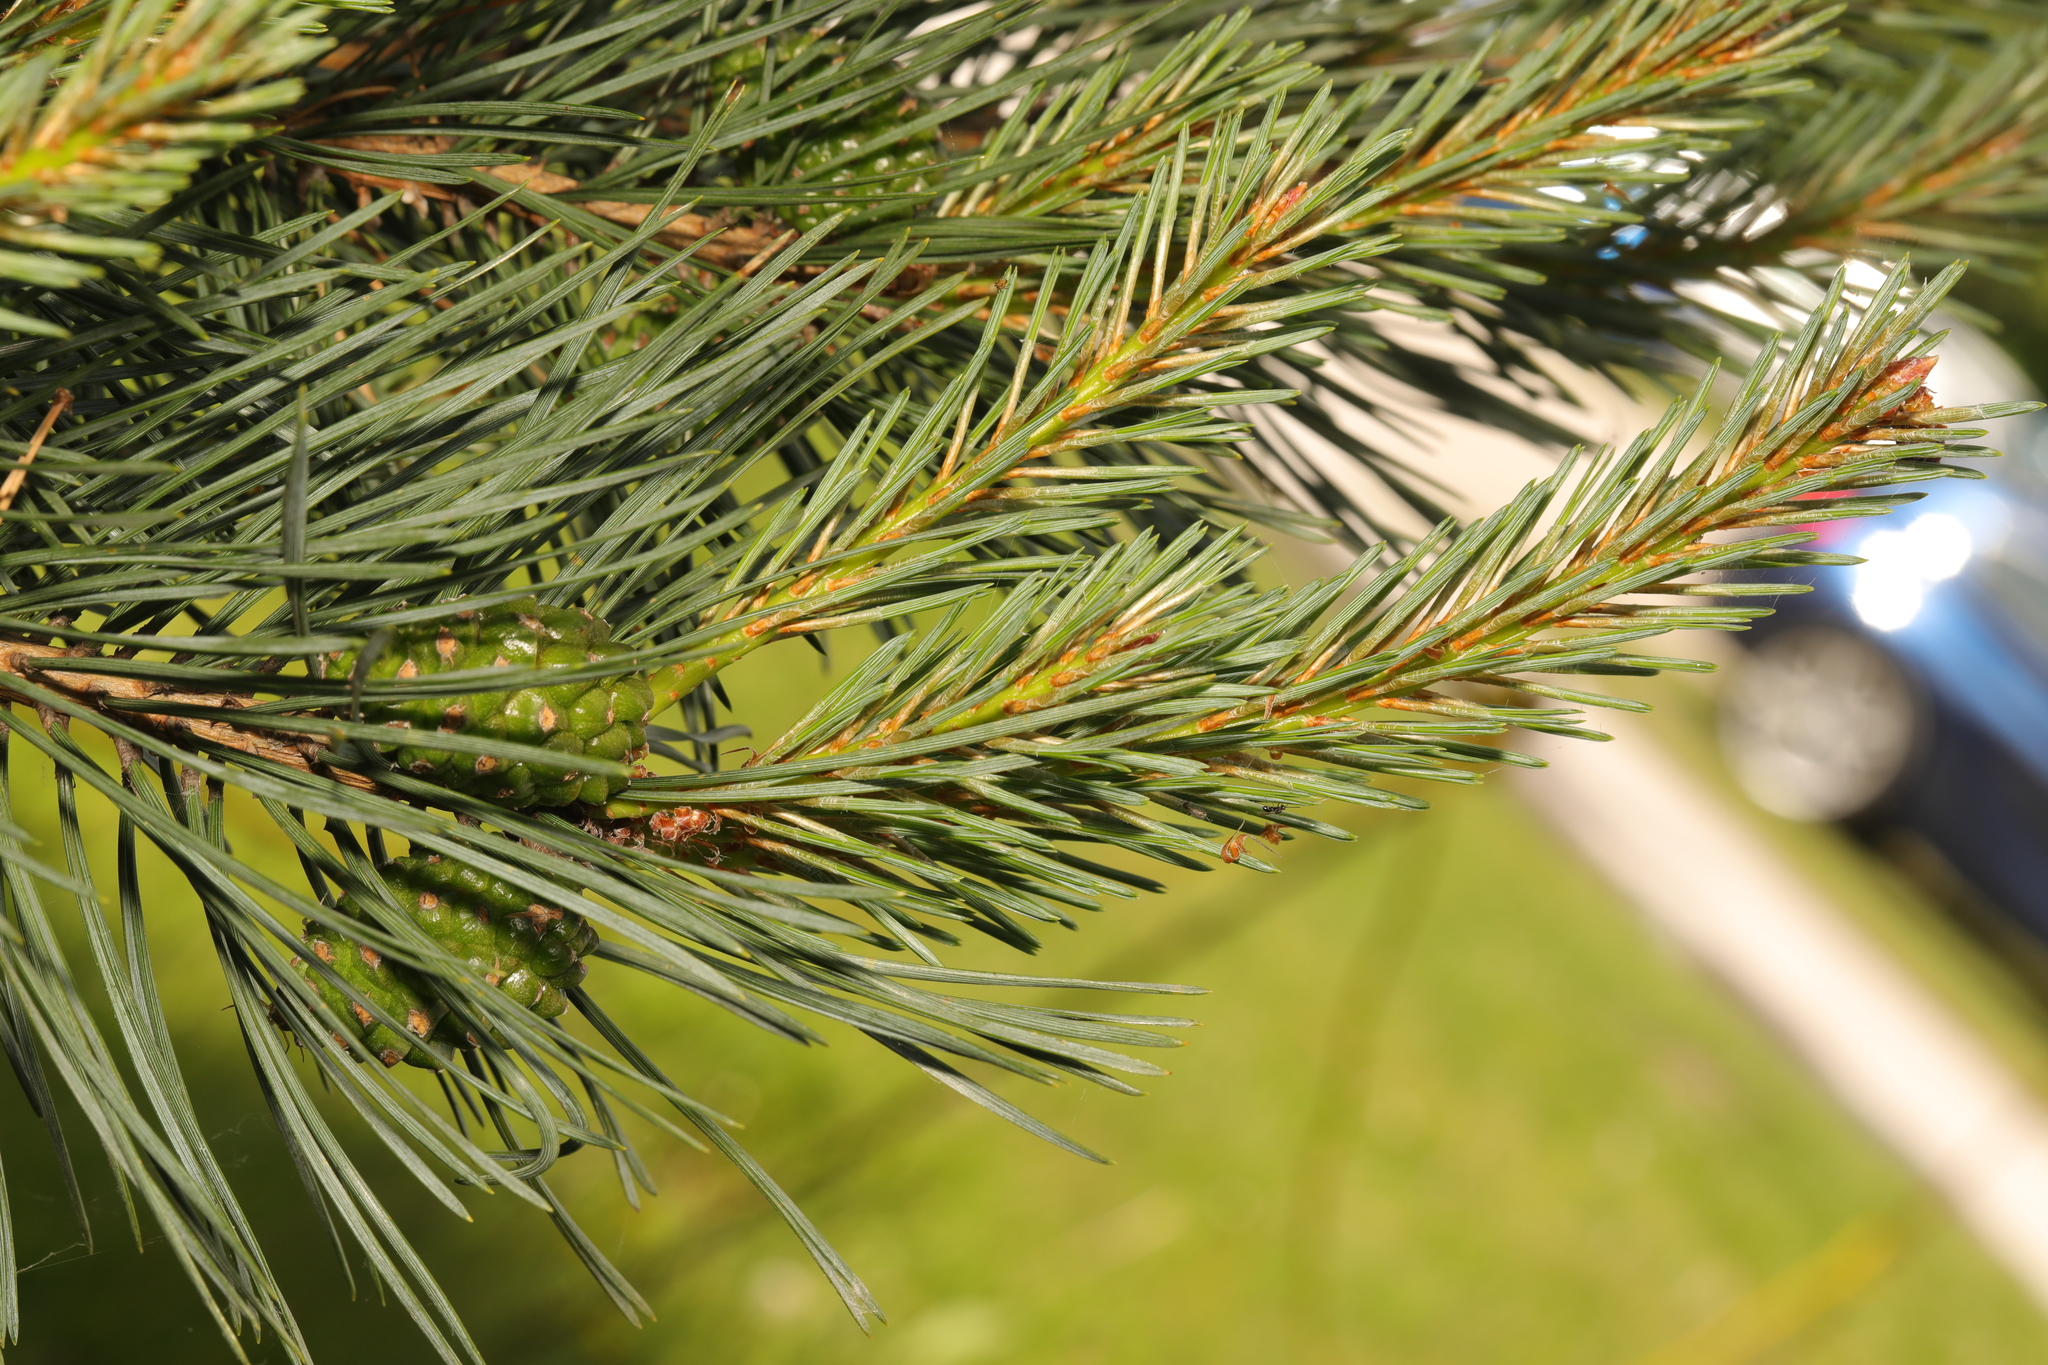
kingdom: Plantae
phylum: Tracheophyta
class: Pinopsida
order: Pinales
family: Pinaceae
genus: Pinus
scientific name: Pinus sylvestris
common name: Scots pine
